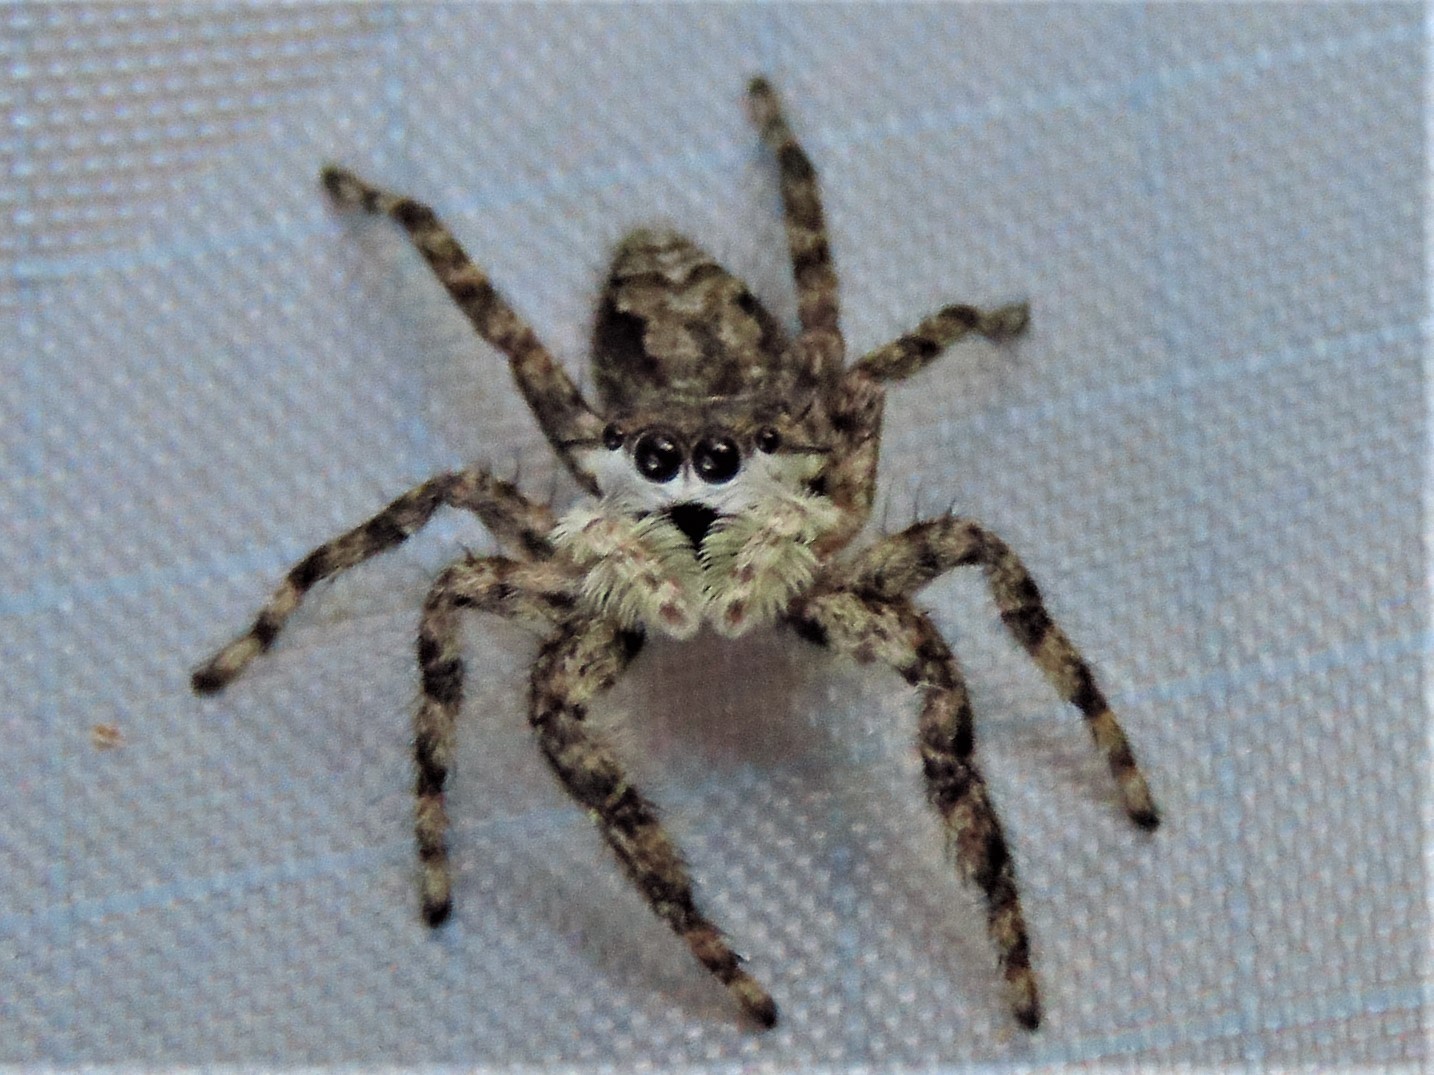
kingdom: Animalia
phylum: Arthropoda
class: Arachnida
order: Araneae
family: Salticidae
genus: Platycryptus
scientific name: Platycryptus undatus
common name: Tan jumping spider
